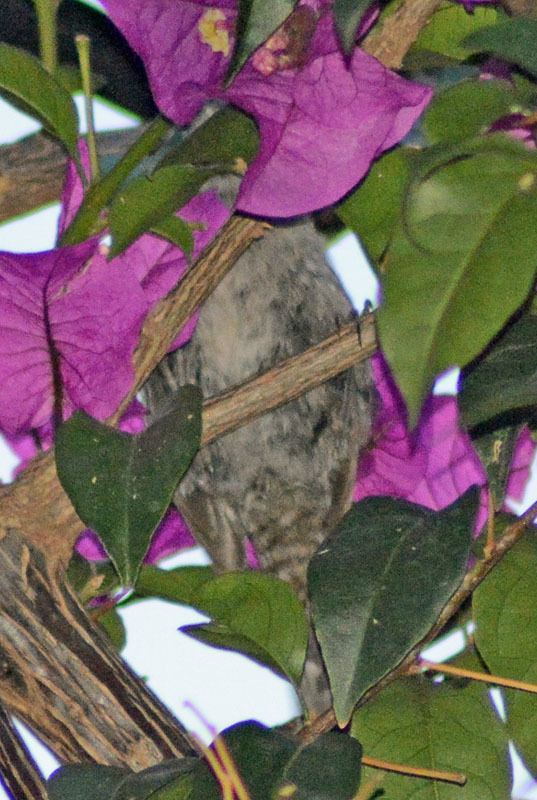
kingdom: Animalia
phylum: Chordata
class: Aves
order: Passeriformes
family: Troglodytidae
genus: Thryomanes
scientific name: Thryomanes bewickii
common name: Bewick's wren
